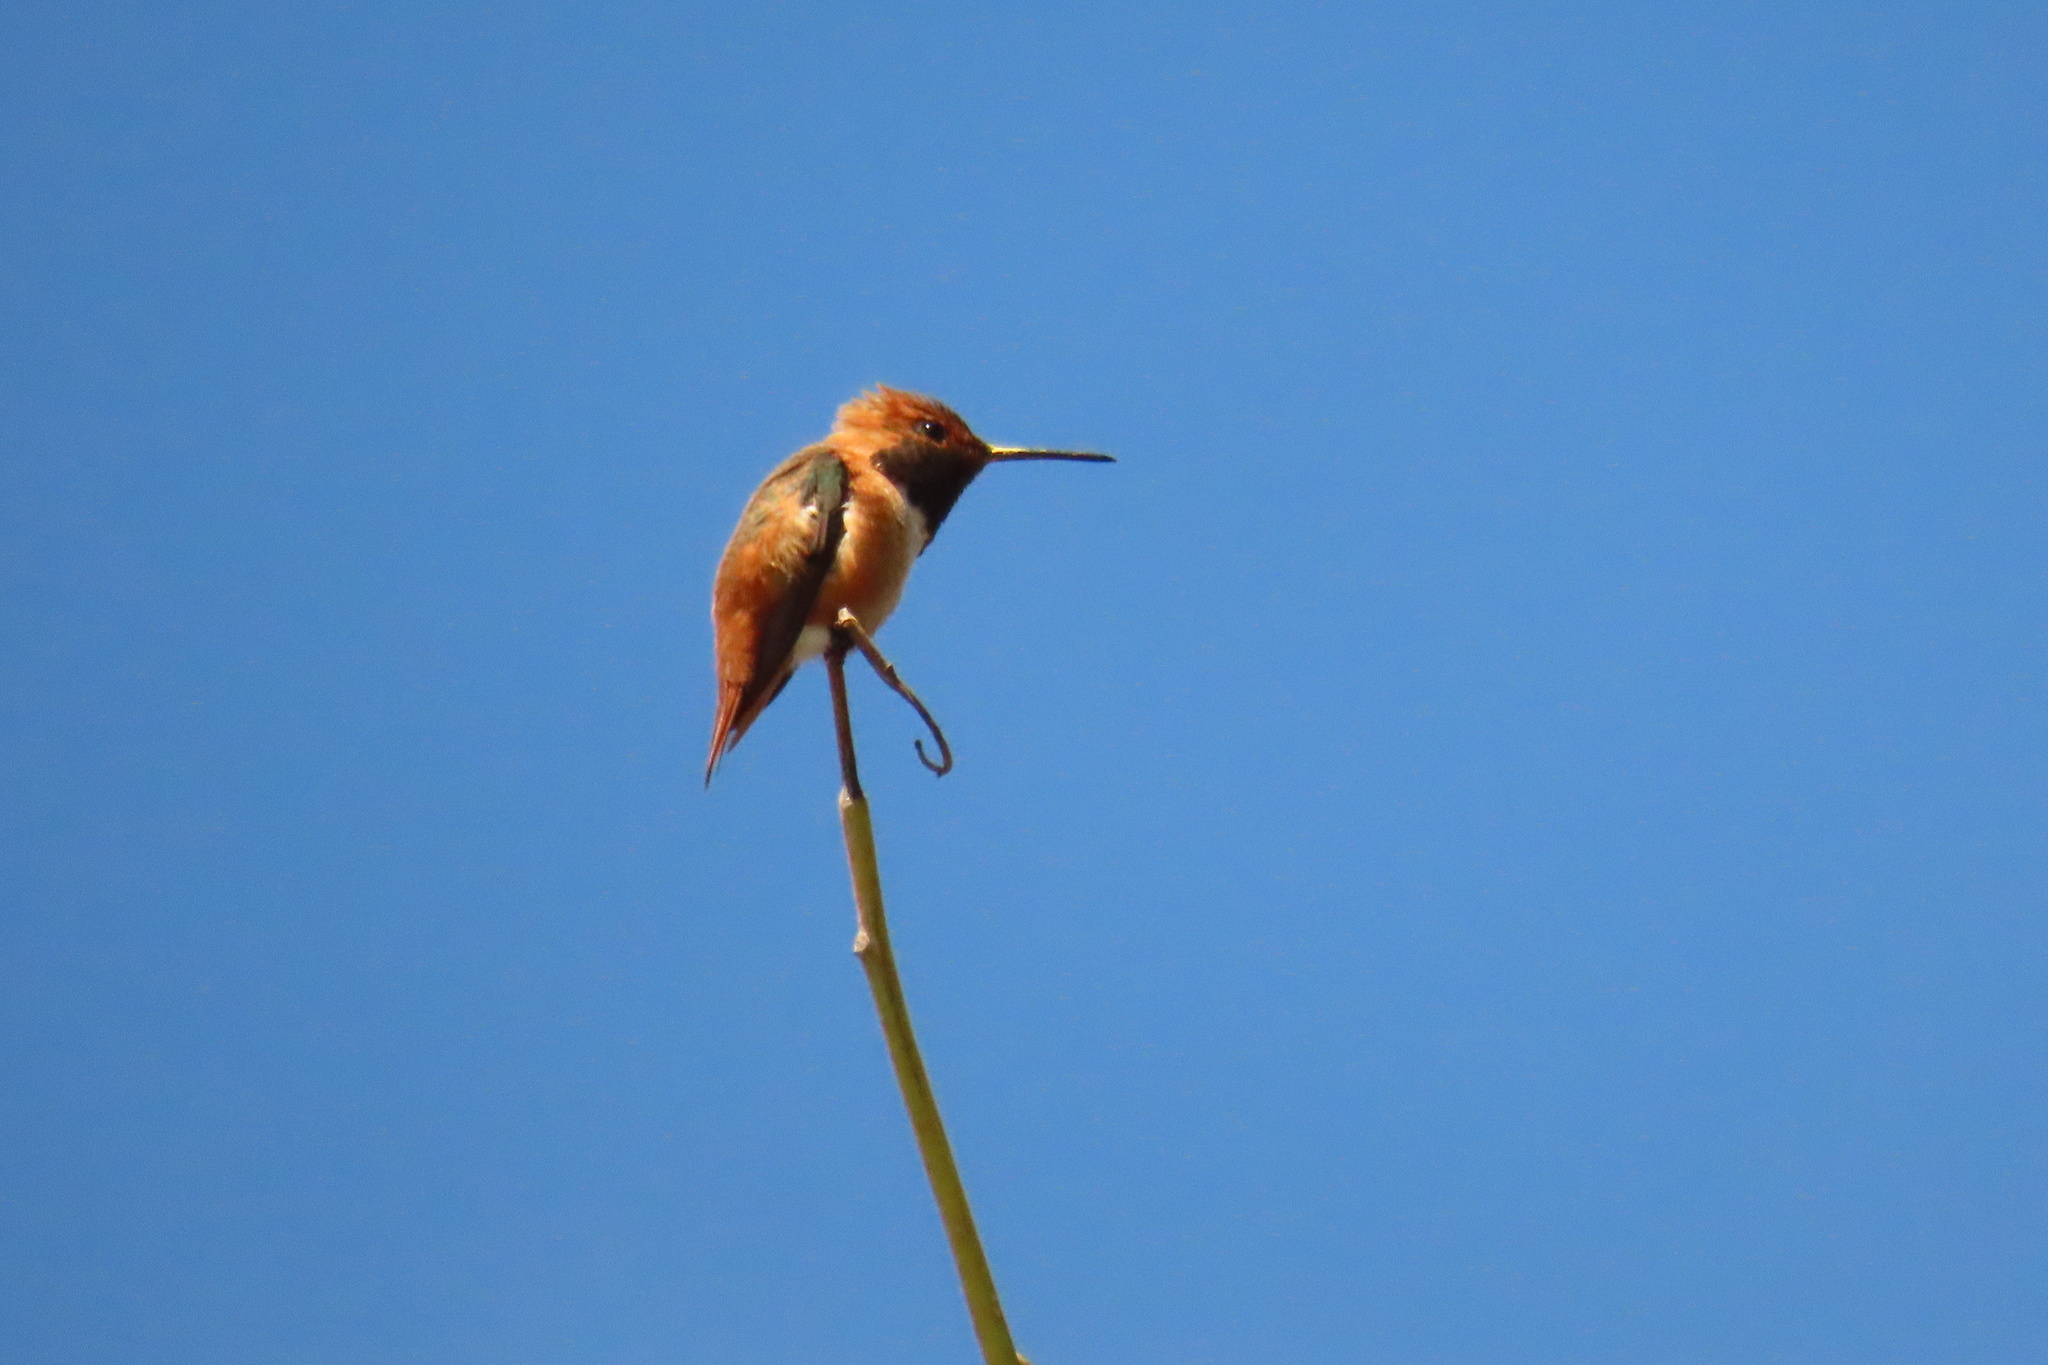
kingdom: Animalia
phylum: Chordata
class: Aves
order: Apodiformes
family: Trochilidae
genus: Selasphorus
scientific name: Selasphorus sasin
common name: Allen's hummingbird
